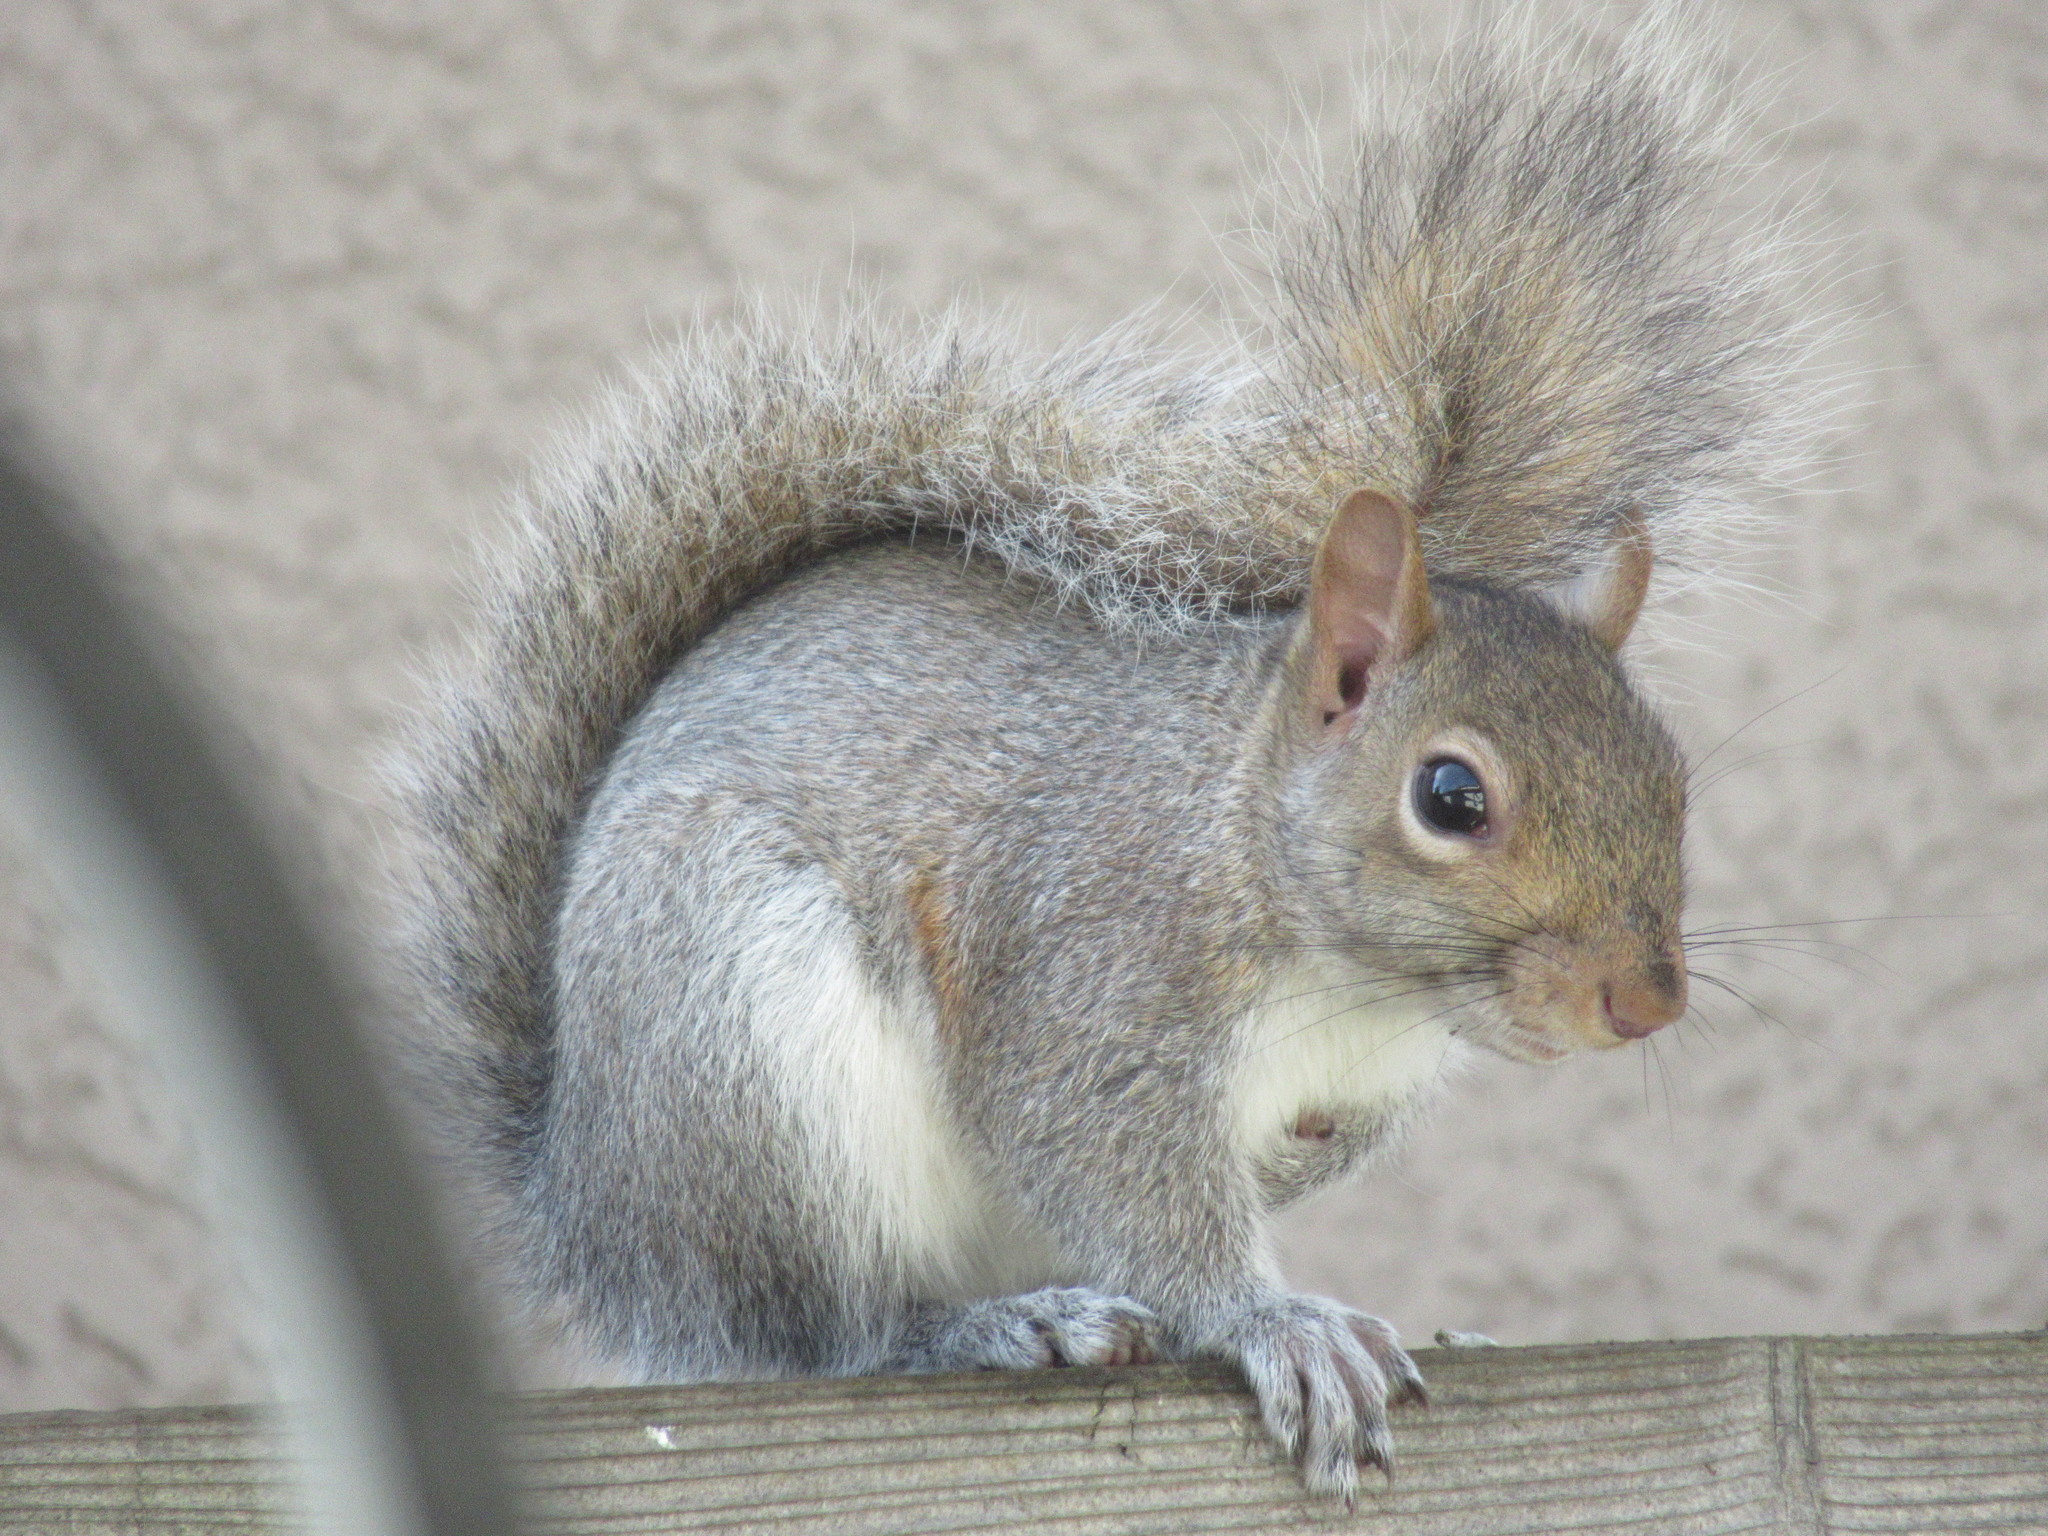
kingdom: Animalia
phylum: Chordata
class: Mammalia
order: Rodentia
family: Sciuridae
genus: Sciurus
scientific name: Sciurus carolinensis
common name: Eastern gray squirrel
